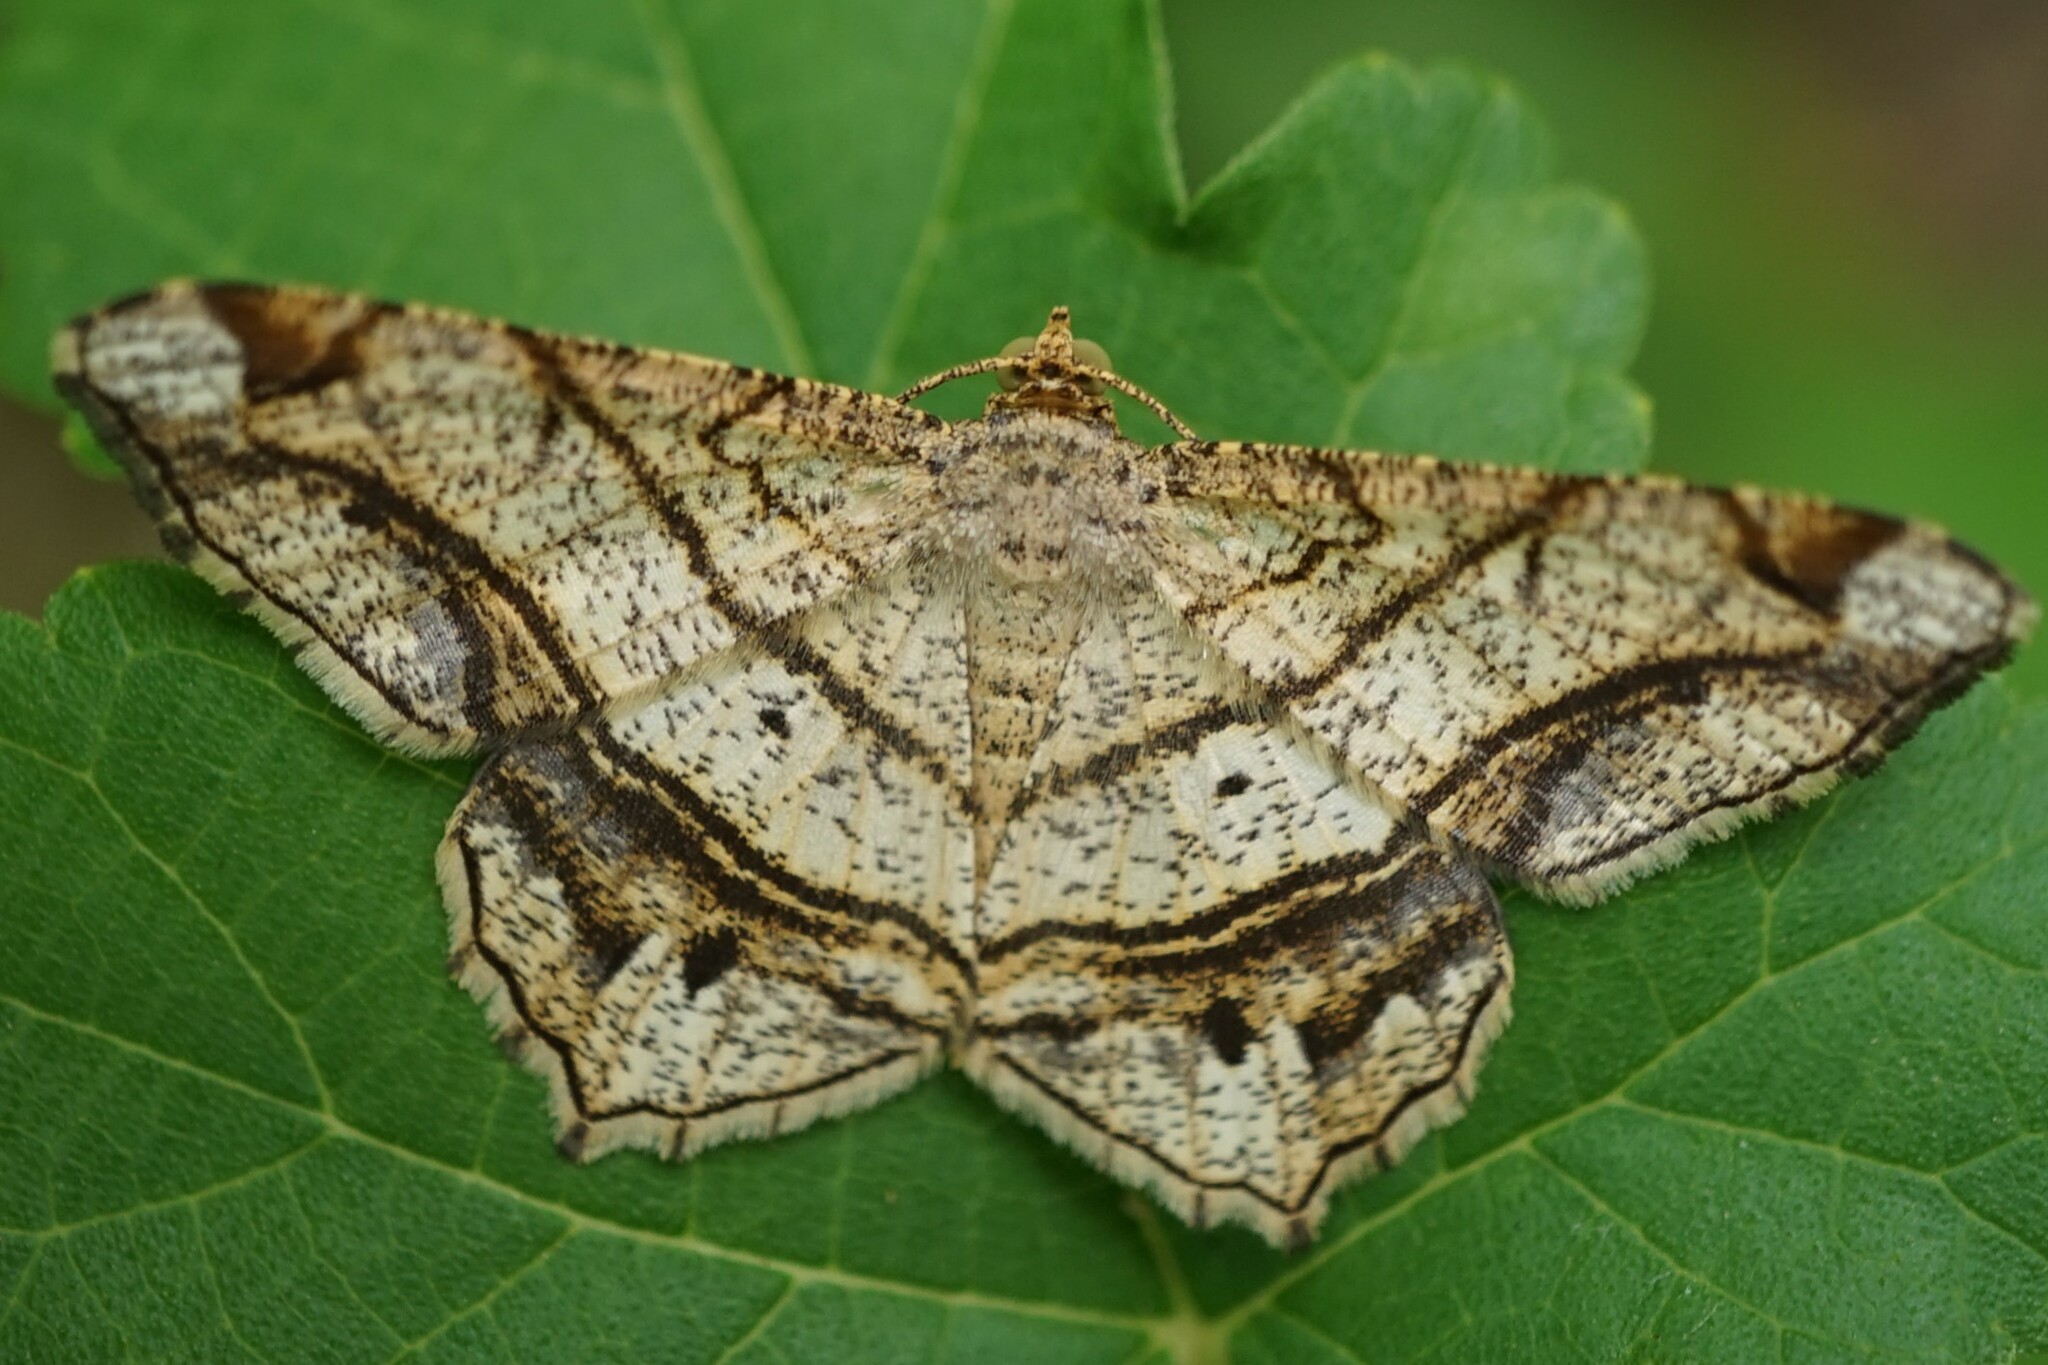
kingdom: Animalia
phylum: Arthropoda
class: Insecta
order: Lepidoptera
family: Geometridae
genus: Chiasmia
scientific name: Chiasmia defixaria
